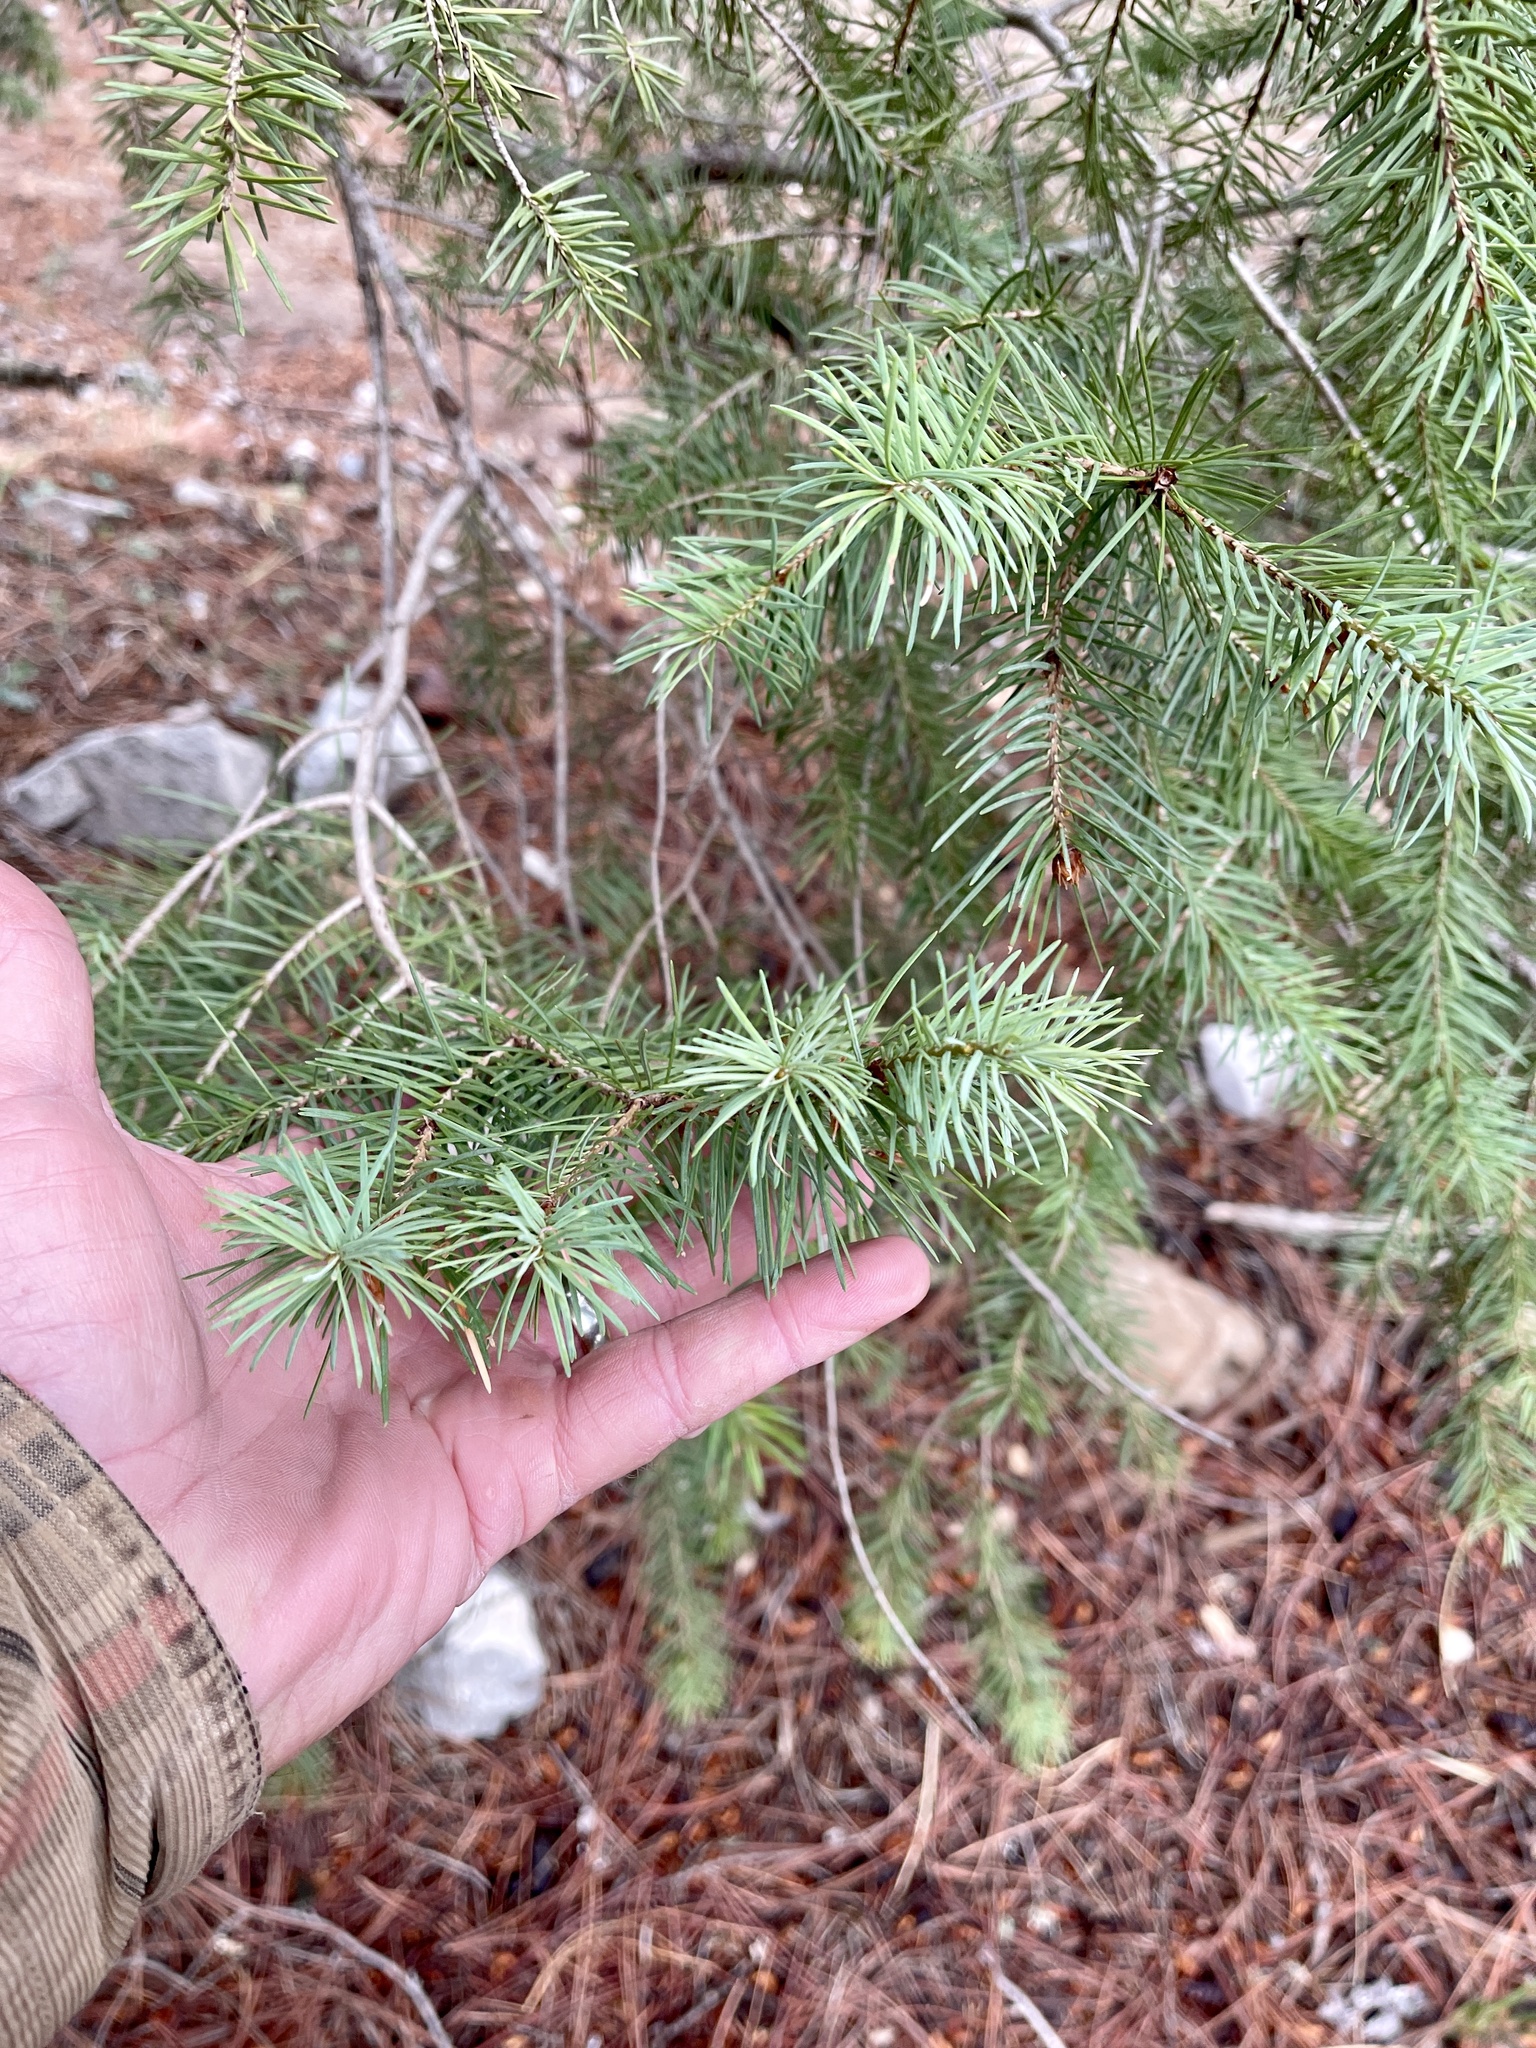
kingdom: Plantae
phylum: Tracheophyta
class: Pinopsida
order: Pinales
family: Pinaceae
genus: Pseudotsuga
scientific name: Pseudotsuga menziesii
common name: Douglas fir
